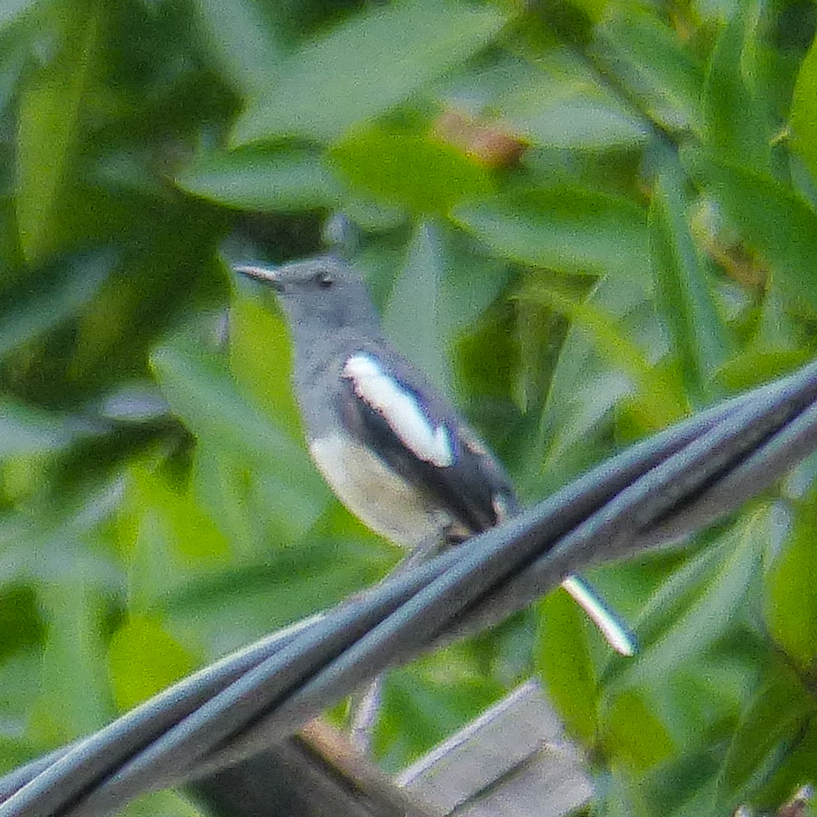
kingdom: Animalia
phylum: Chordata
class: Aves
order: Passeriformes
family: Muscicapidae
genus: Copsychus
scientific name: Copsychus saularis
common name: Oriental magpie-robin
